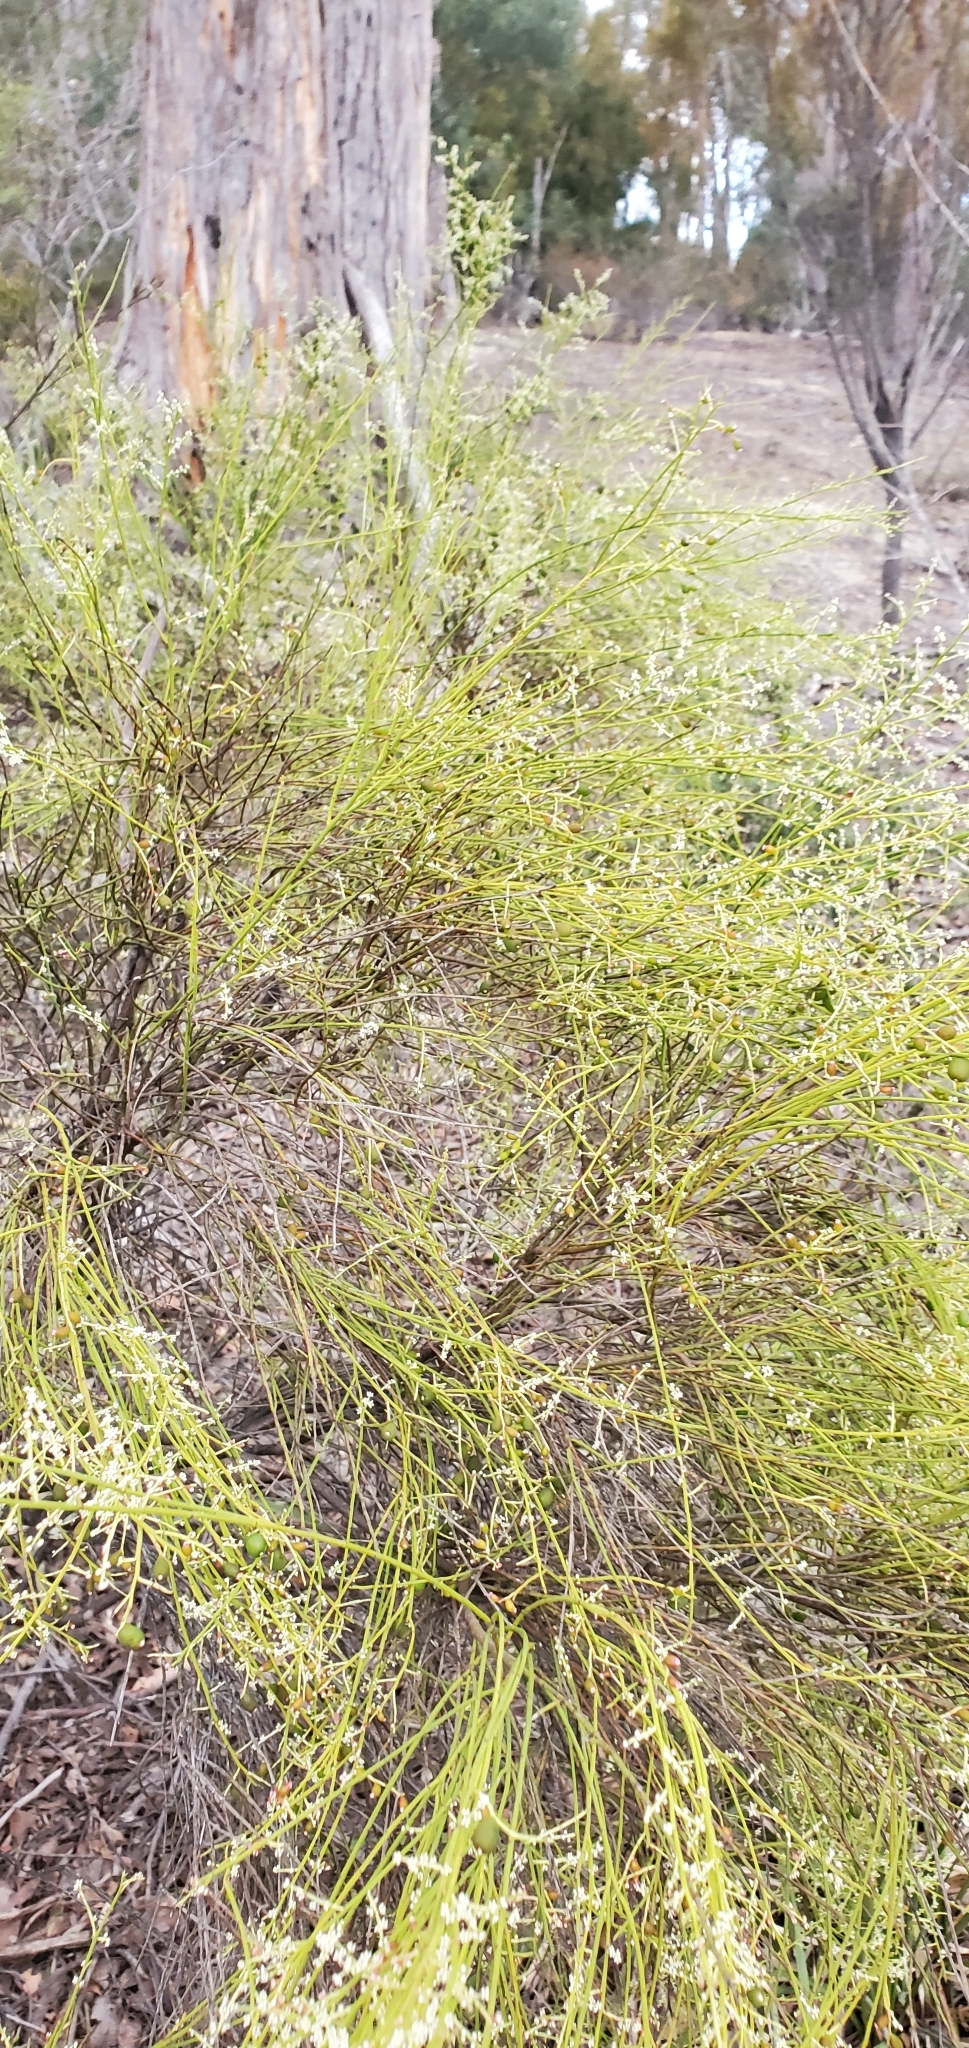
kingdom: Plantae
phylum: Tracheophyta
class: Magnoliopsida
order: Santalales
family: Amphorogynaceae
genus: Leptomeria
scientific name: Leptomeria drupacea
